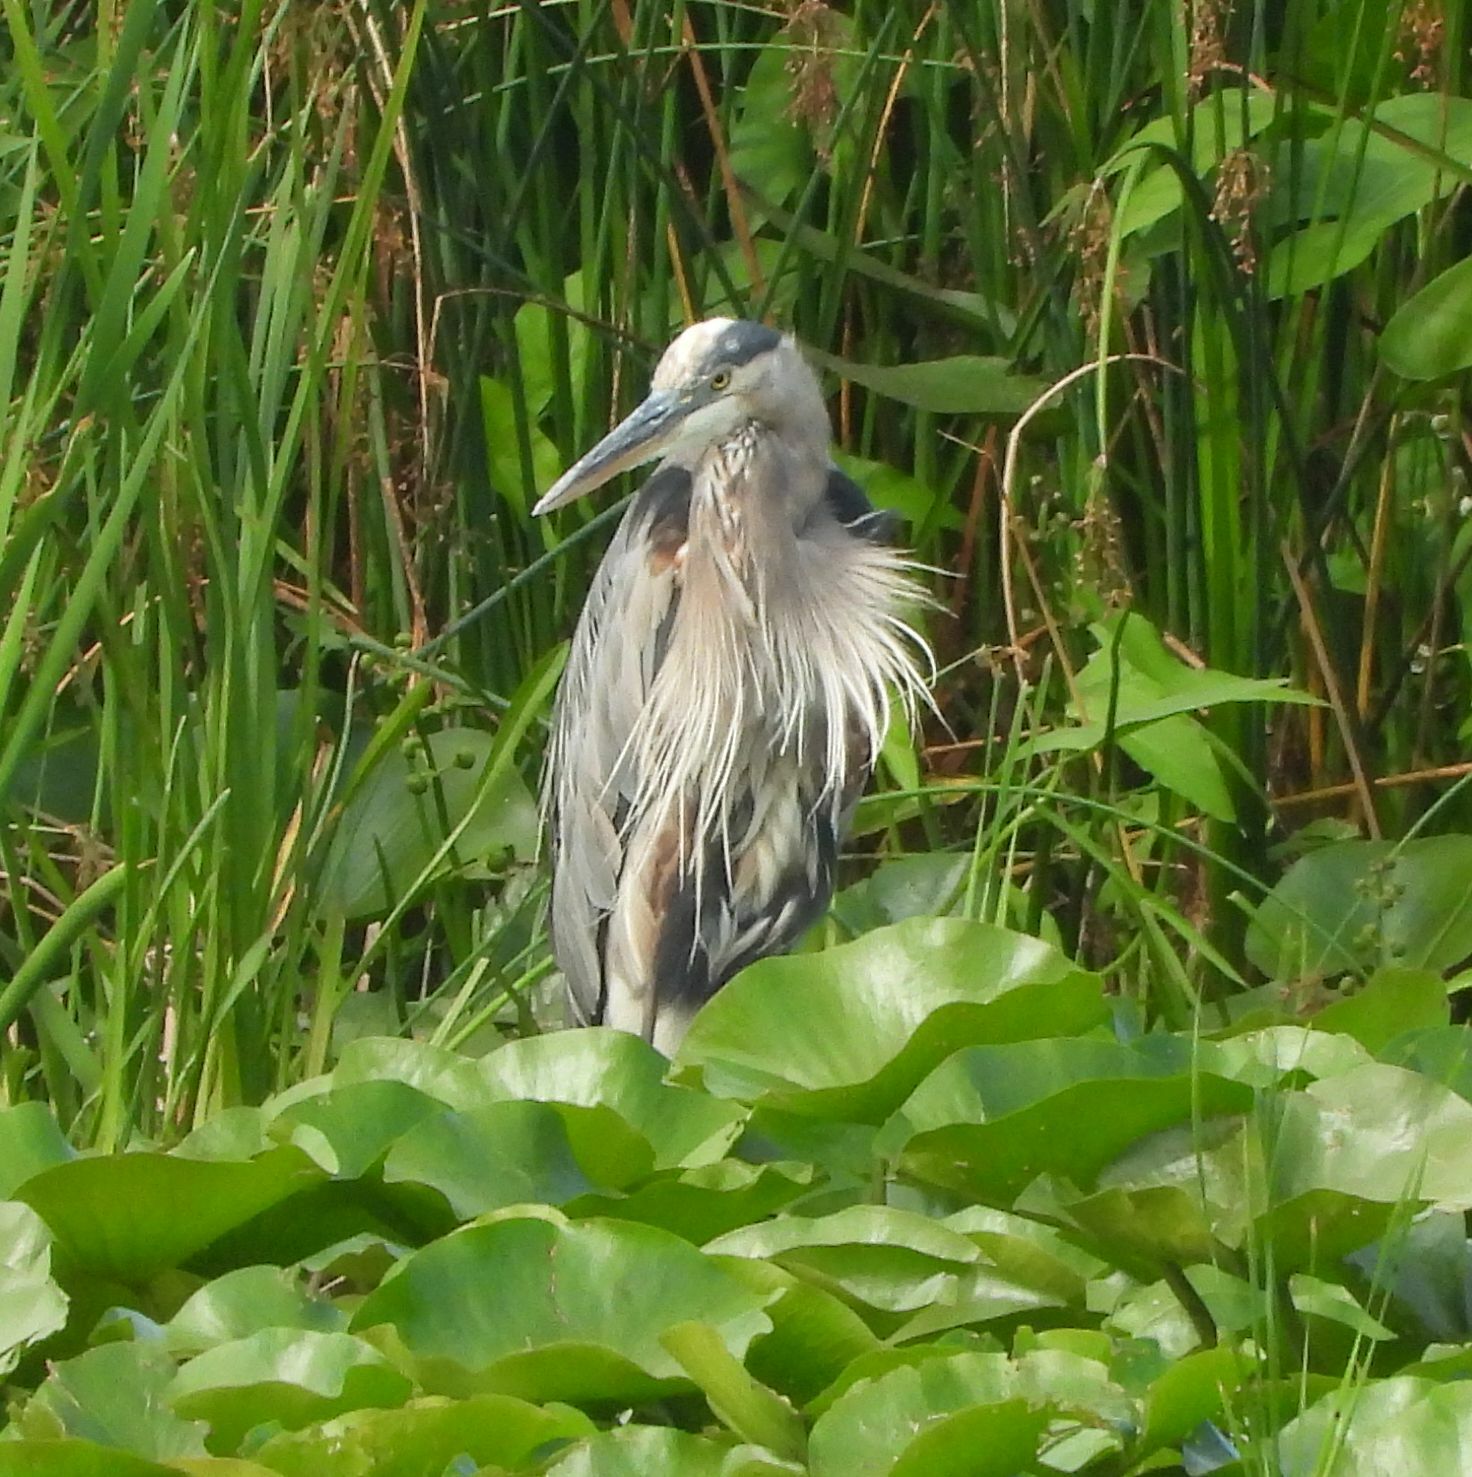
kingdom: Animalia
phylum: Chordata
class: Aves
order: Pelecaniformes
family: Ardeidae
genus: Ardea
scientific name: Ardea herodias
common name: Great blue heron
